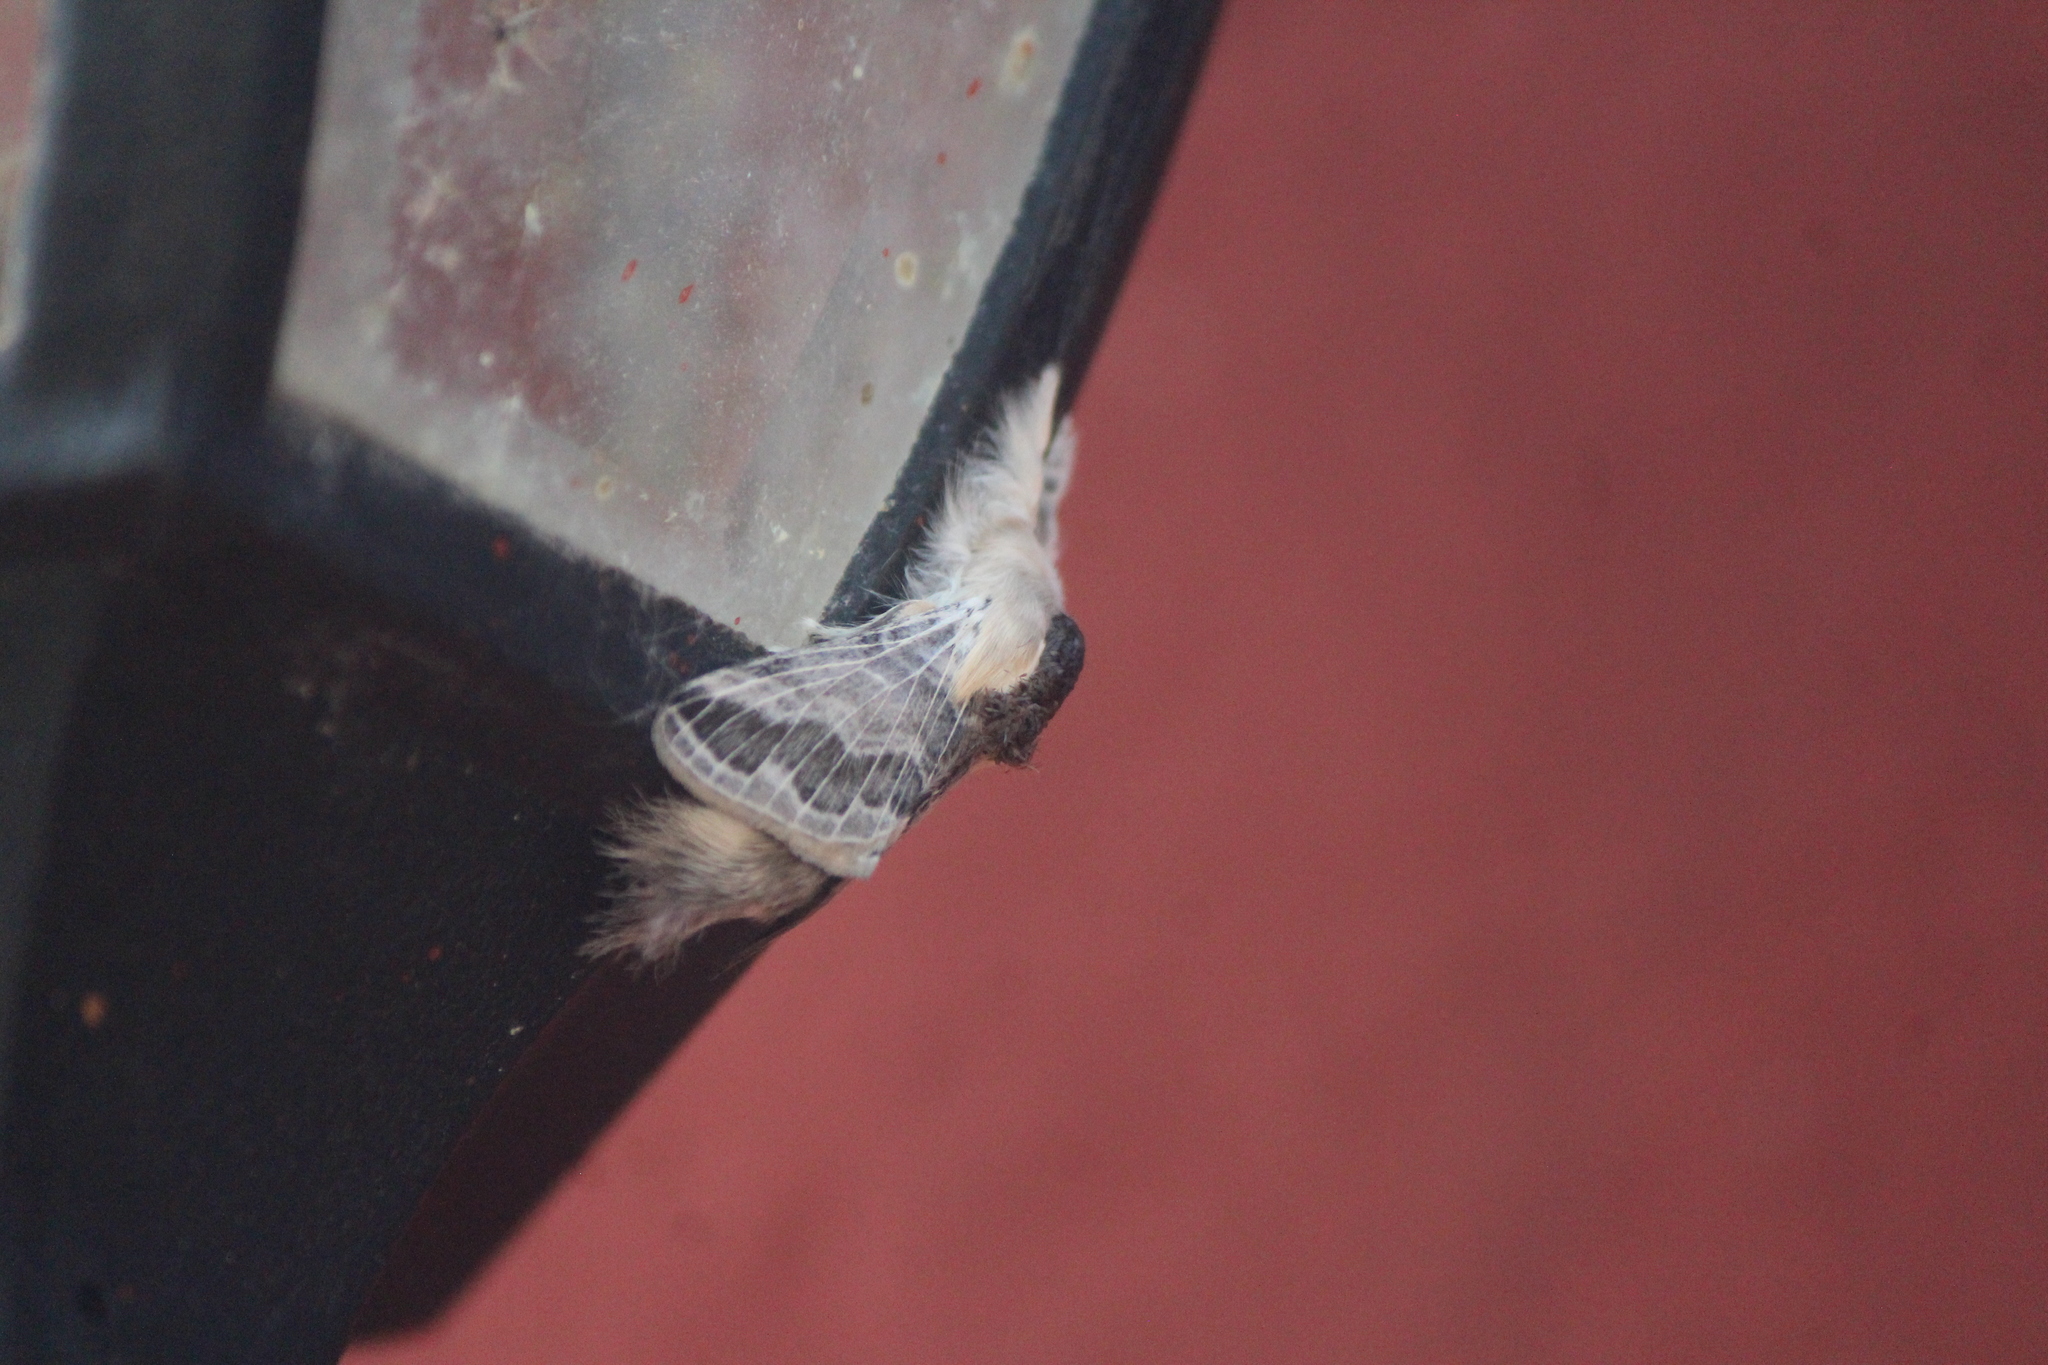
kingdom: Animalia
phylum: Arthropoda
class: Insecta
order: Lepidoptera
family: Lasiocampidae
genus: Tolype
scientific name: Tolype velleda
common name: Large tolype moth
